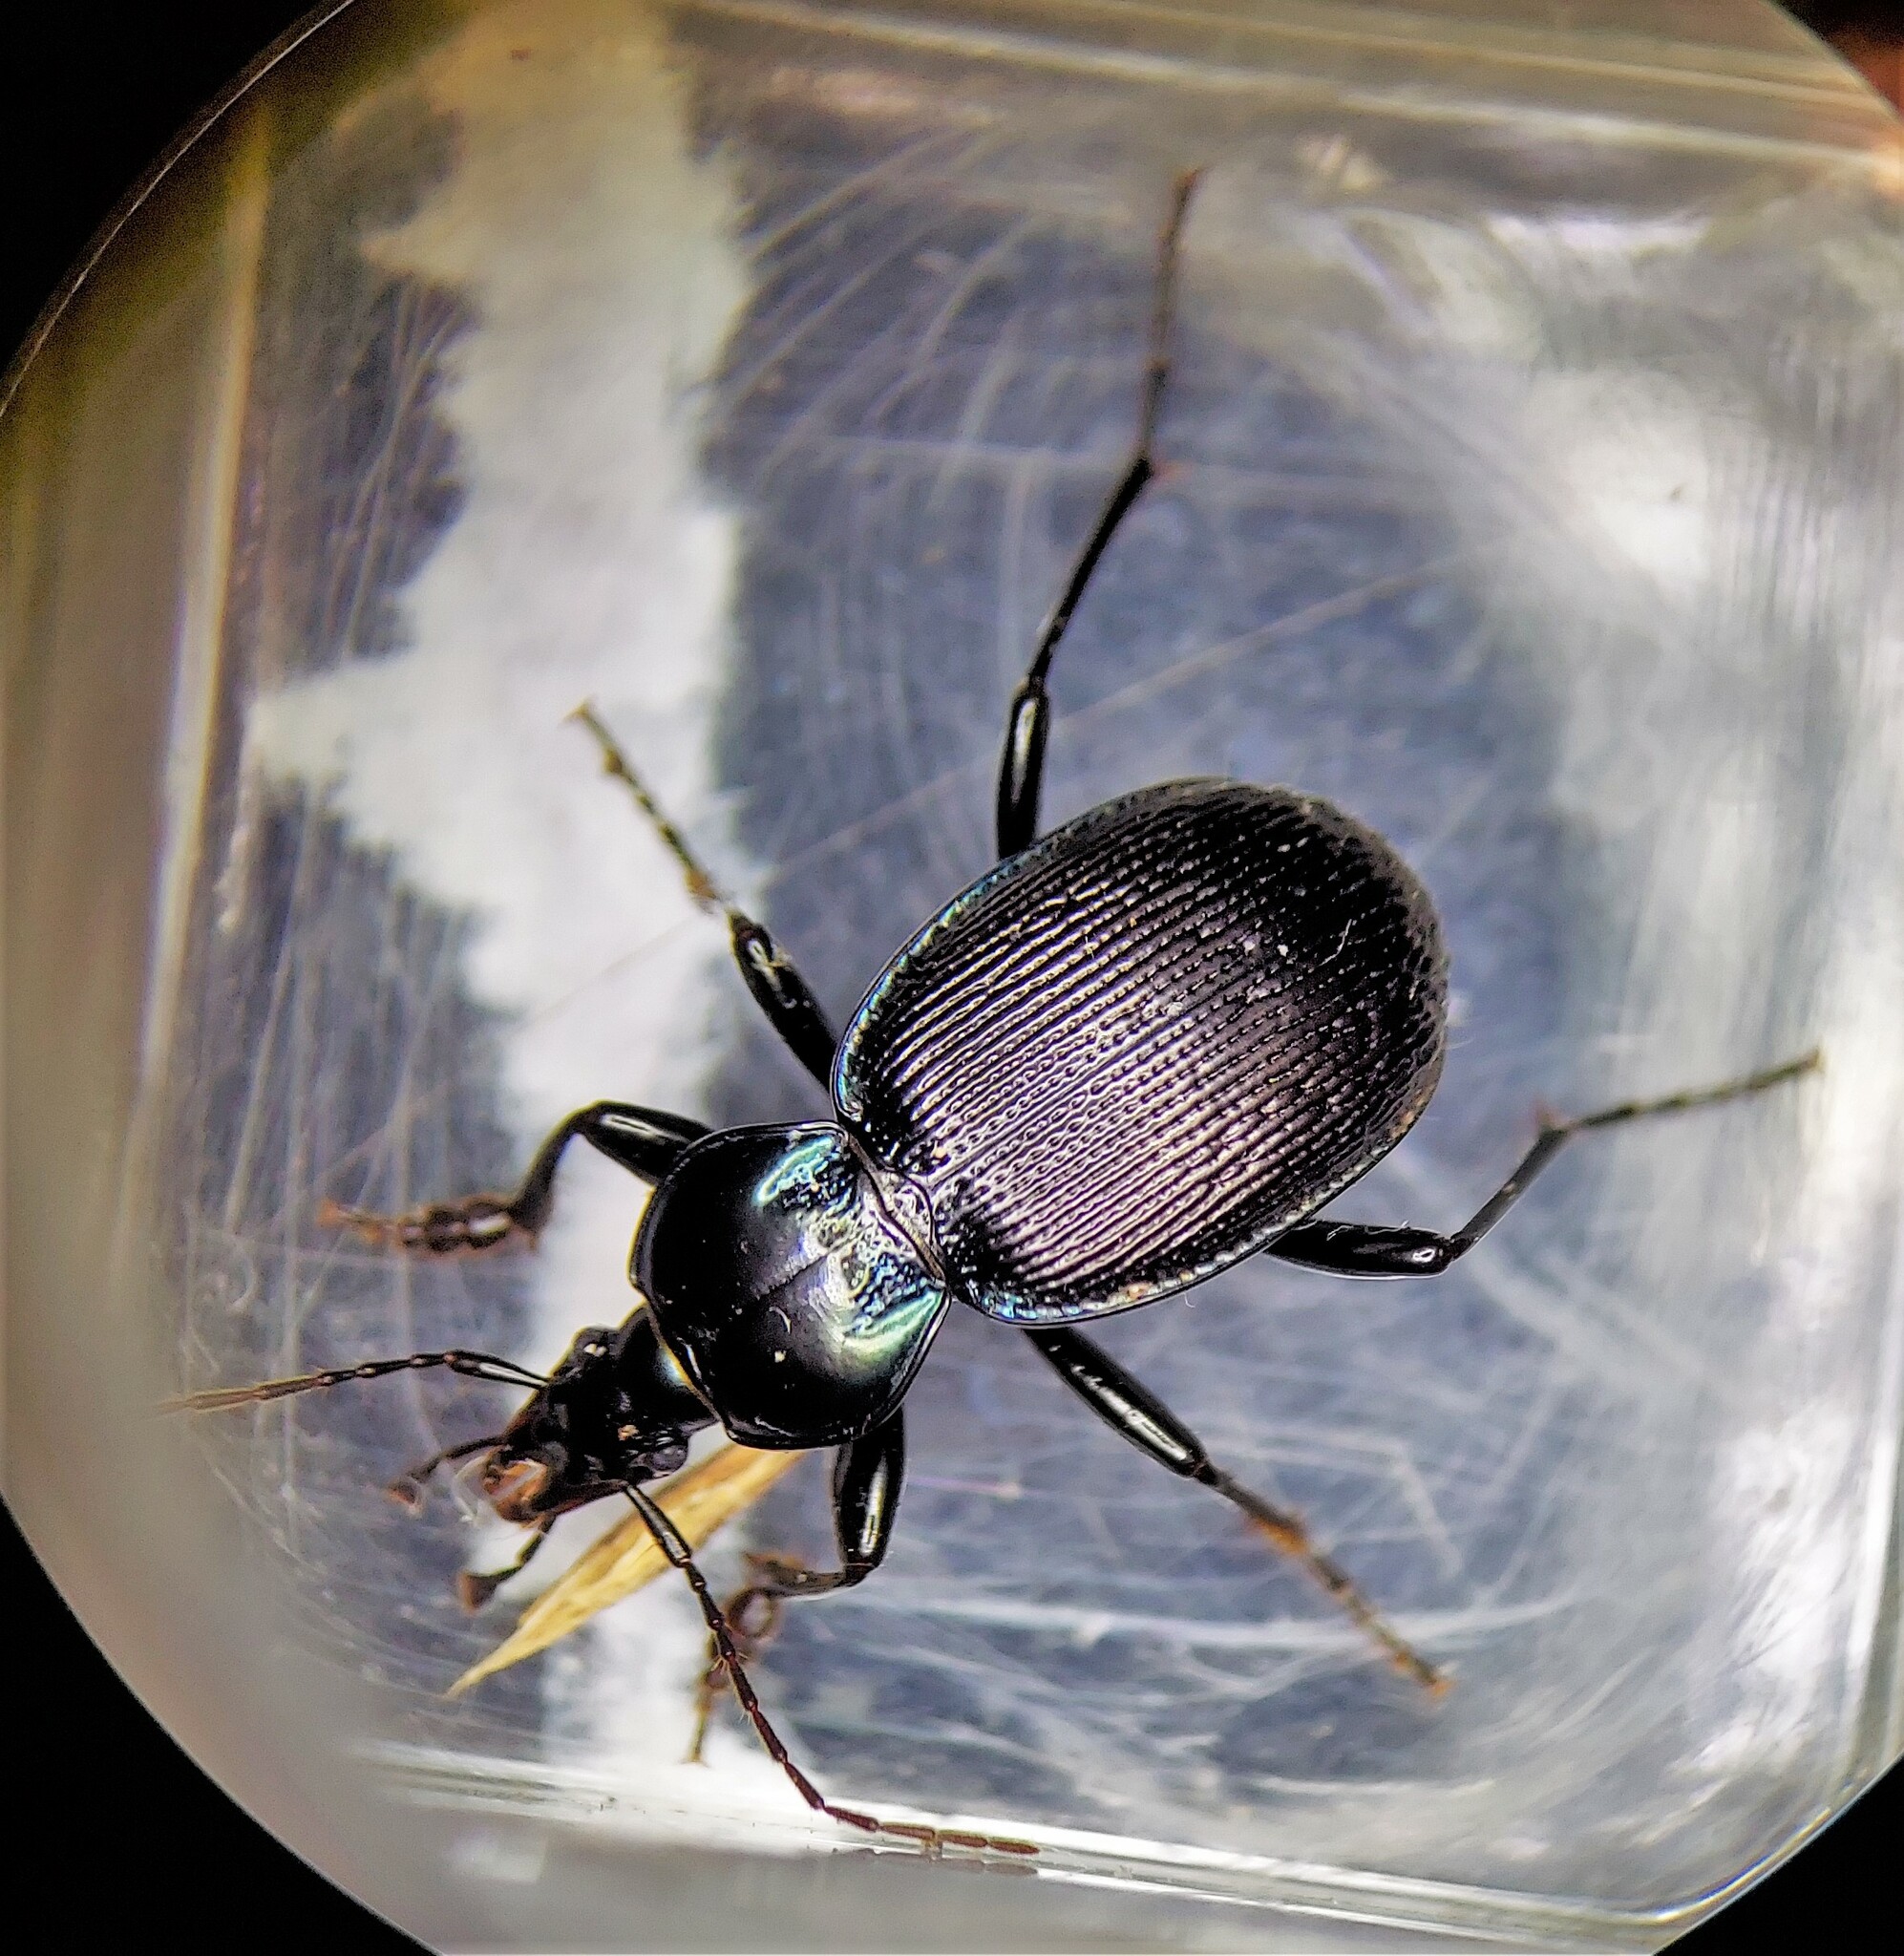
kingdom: Animalia
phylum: Arthropoda
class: Insecta
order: Coleoptera
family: Carabidae
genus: Sphaeroderus
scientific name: Sphaeroderus stenostomus
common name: Small snail-eating ground beetle
